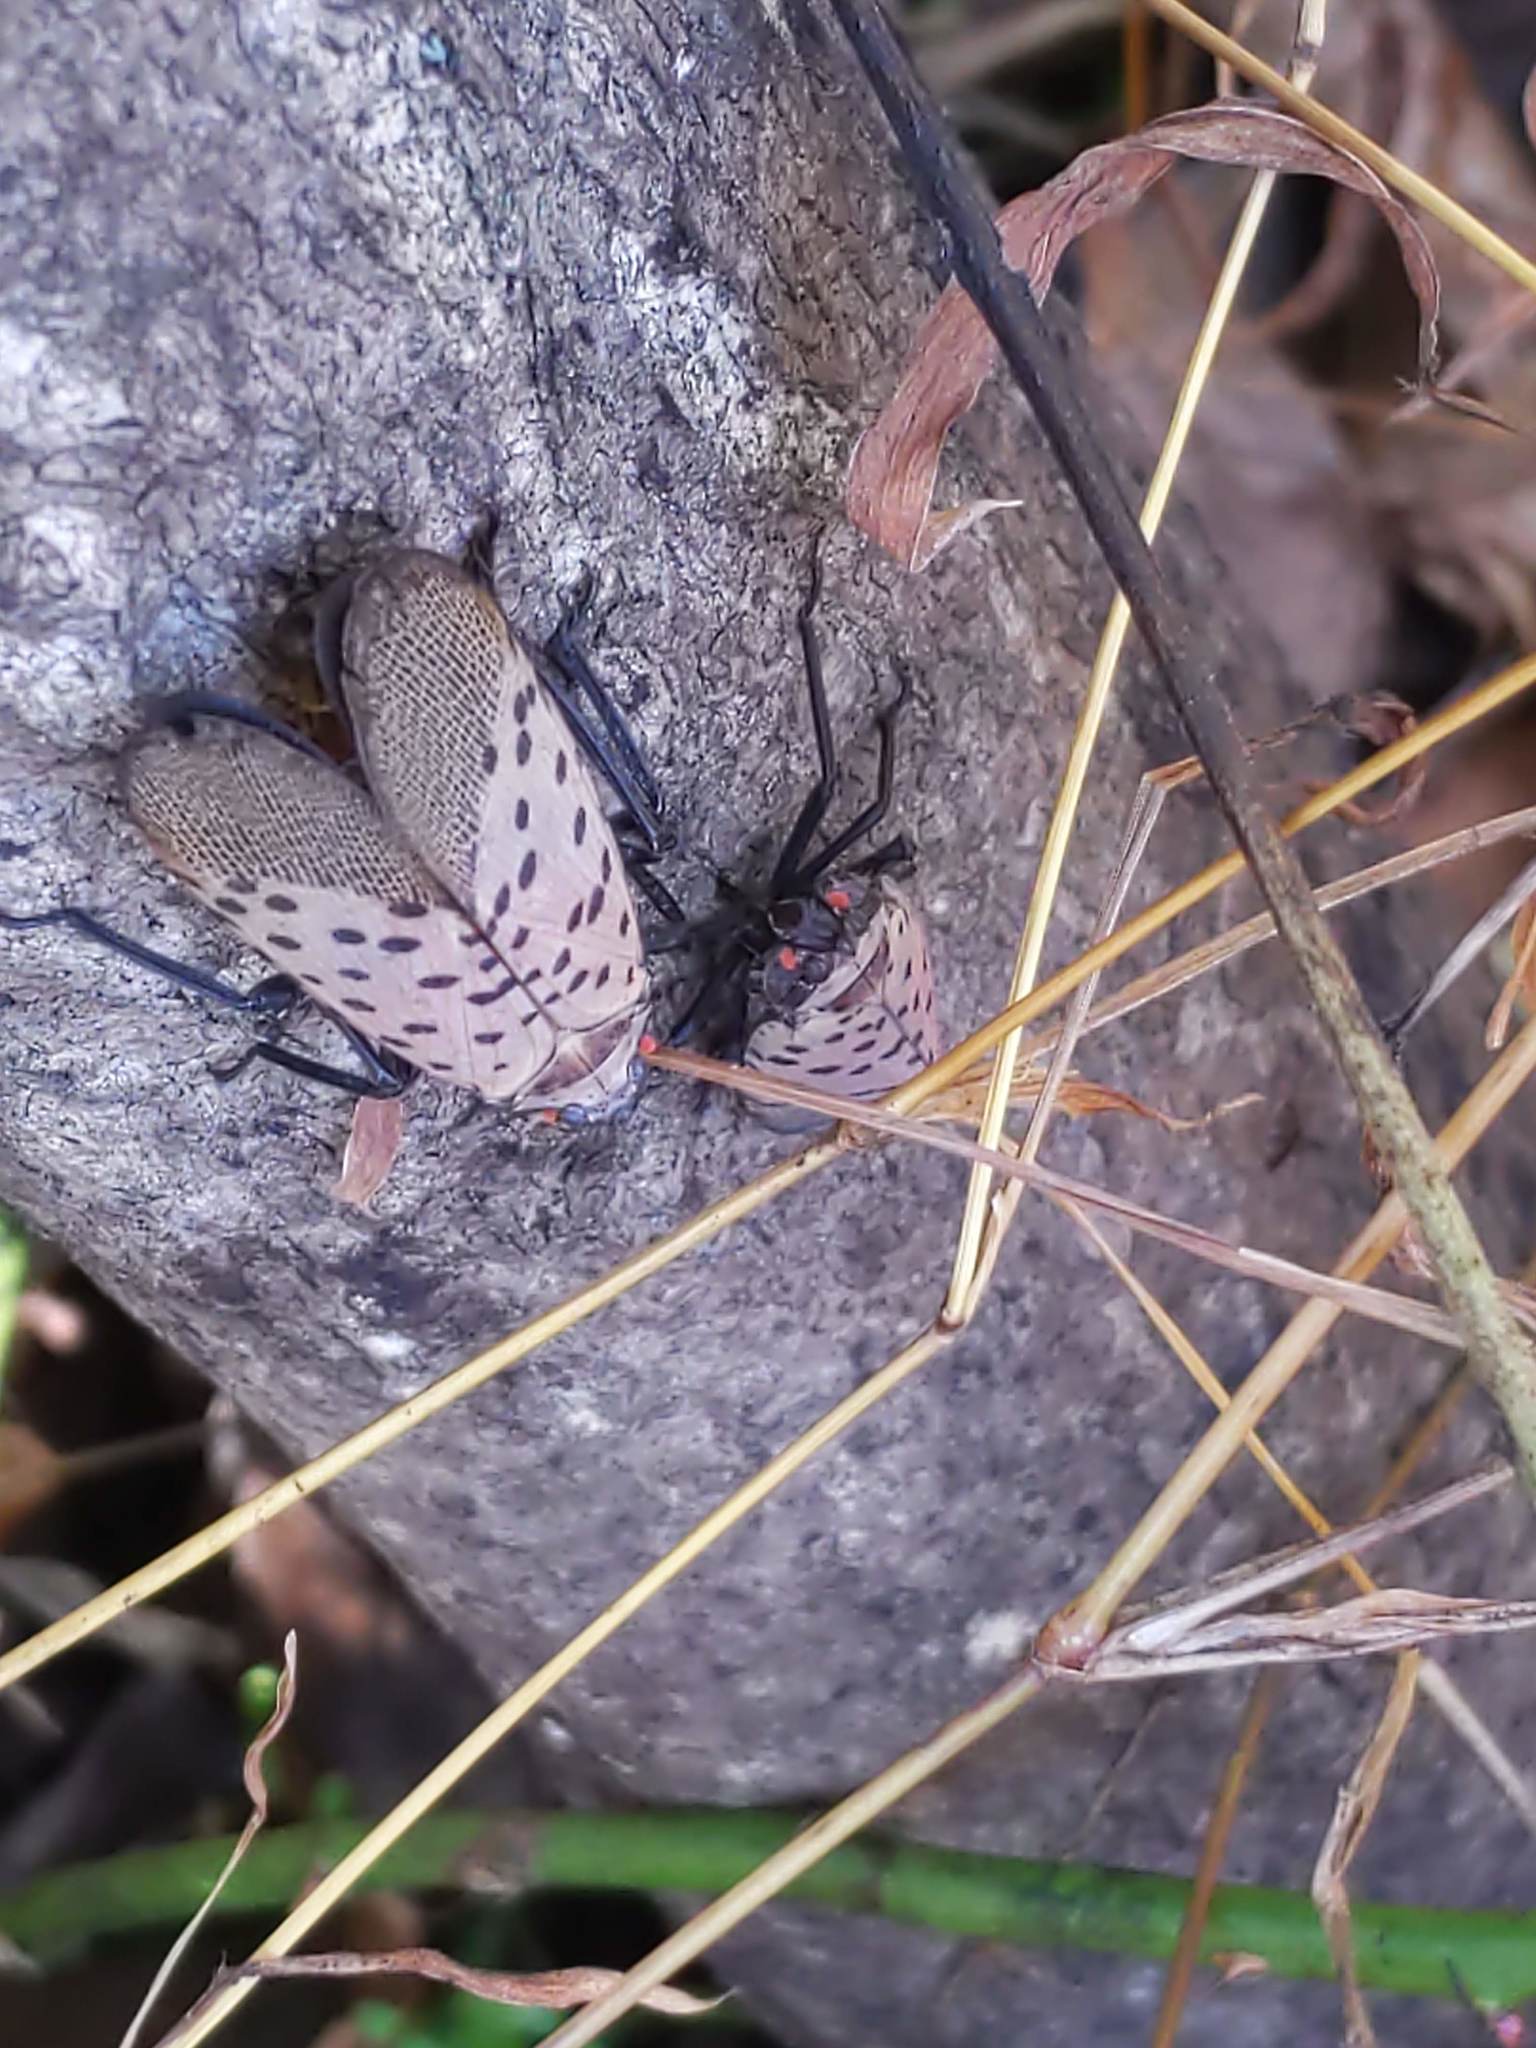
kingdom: Animalia
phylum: Arthropoda
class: Insecta
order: Hemiptera
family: Fulgoridae
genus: Lycorma
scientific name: Lycorma delicatula
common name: Spotted lanternfly
